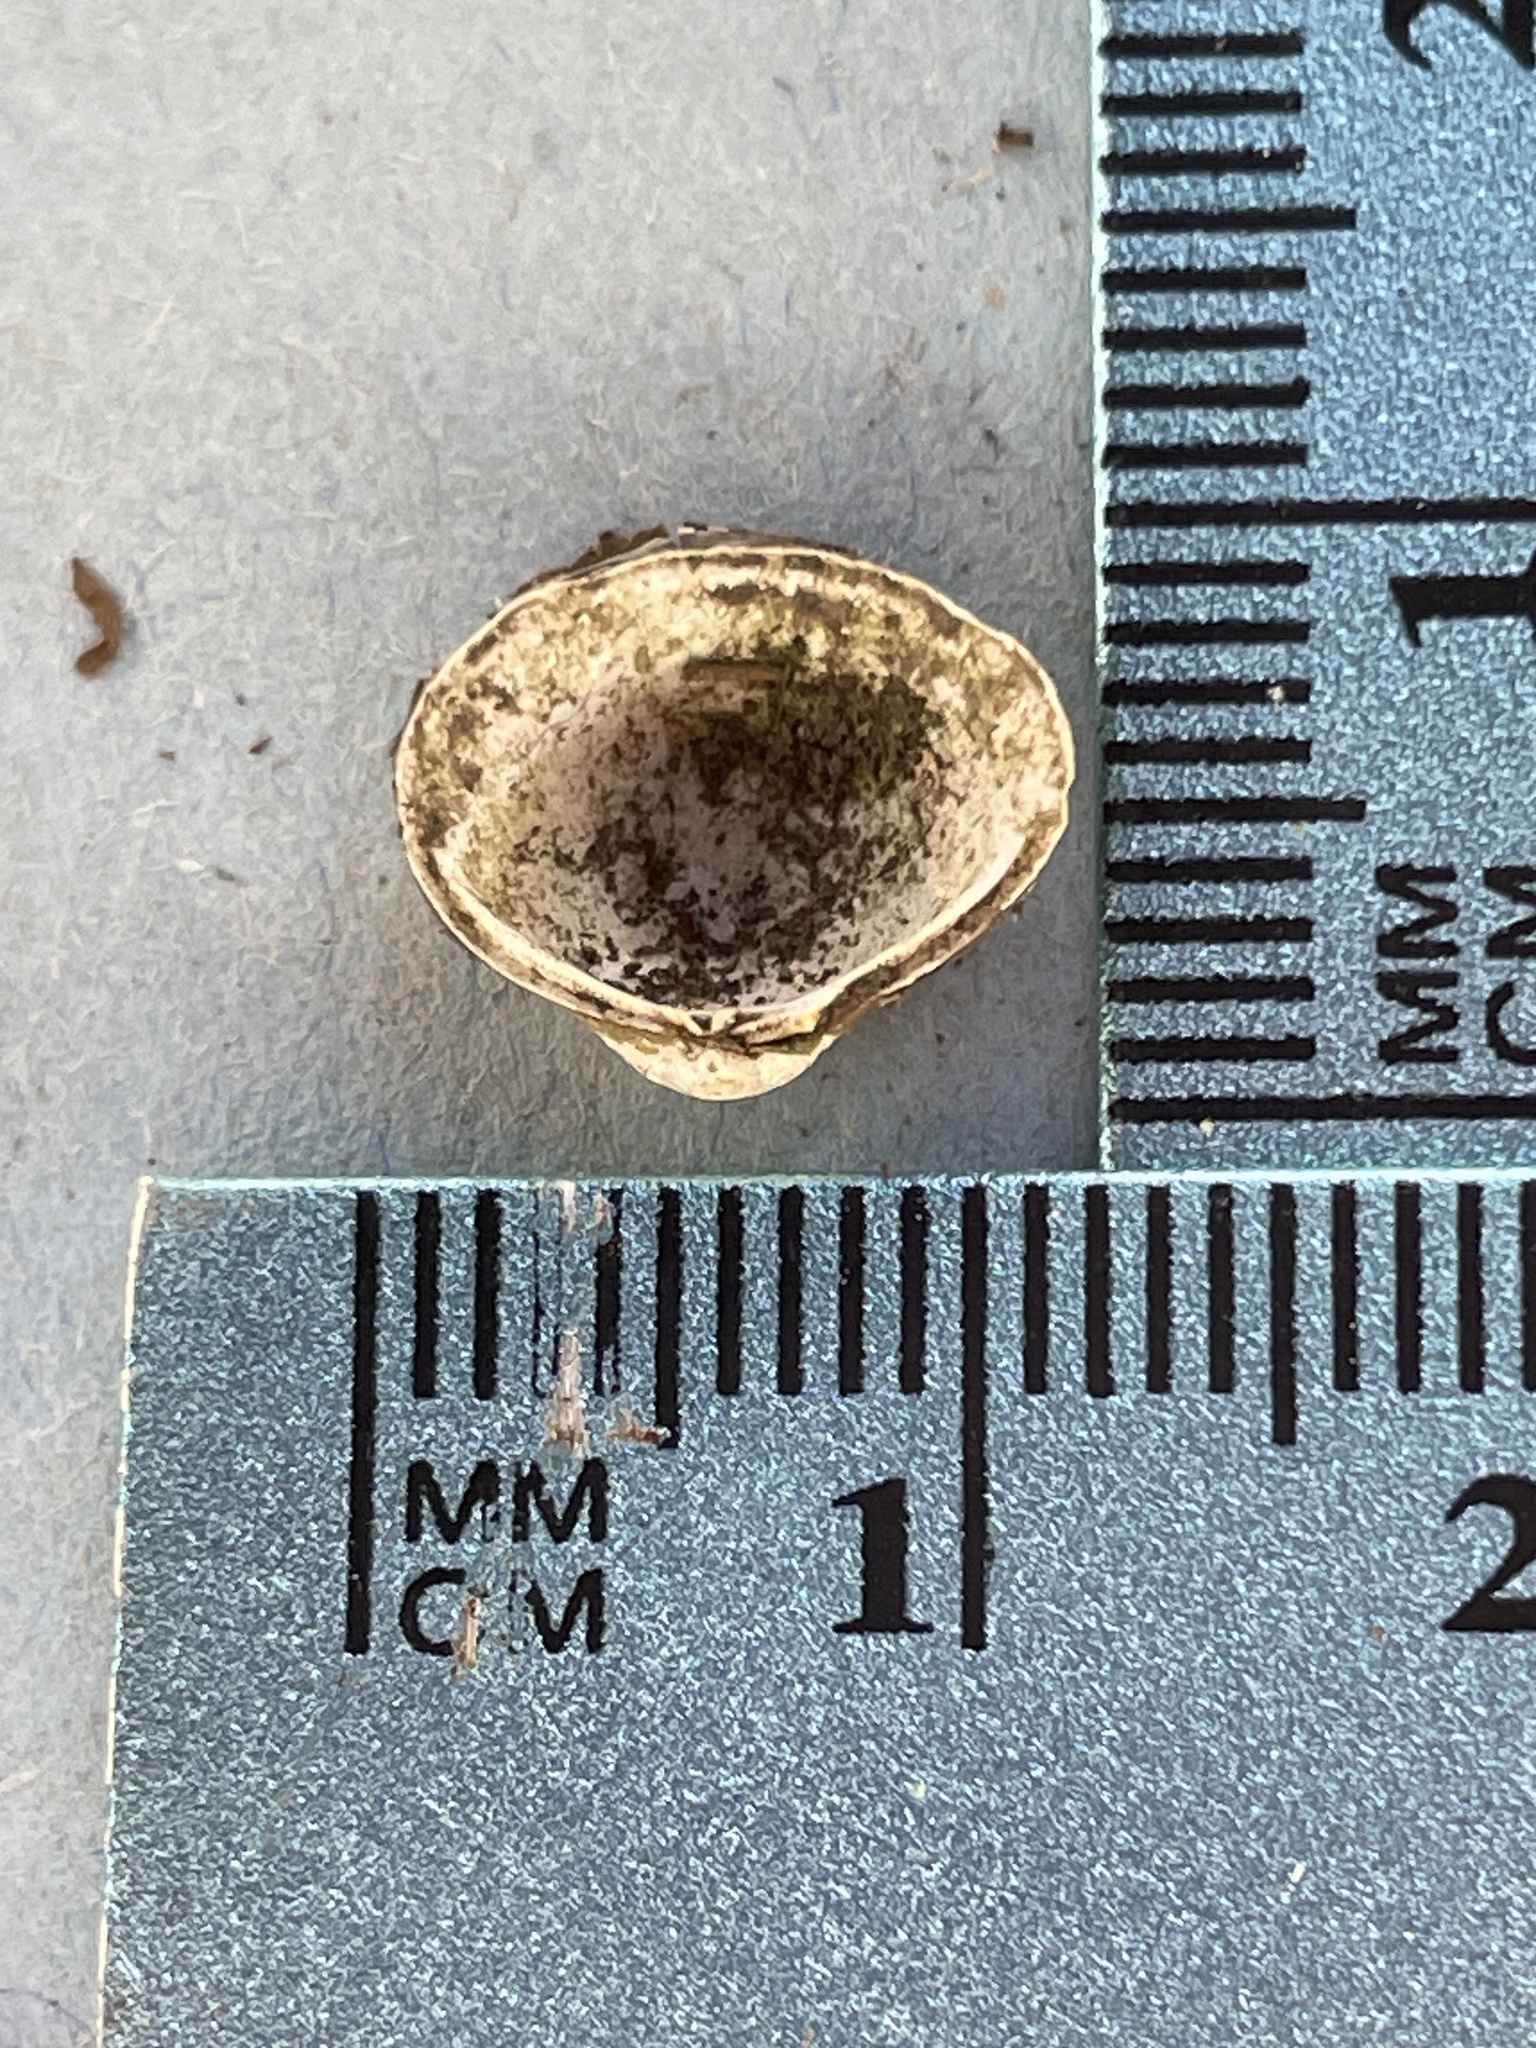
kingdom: Animalia
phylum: Mollusca
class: Bivalvia
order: Venerida
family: Cyrenidae
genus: Corbicula
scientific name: Corbicula fluminea
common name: Asian clam
